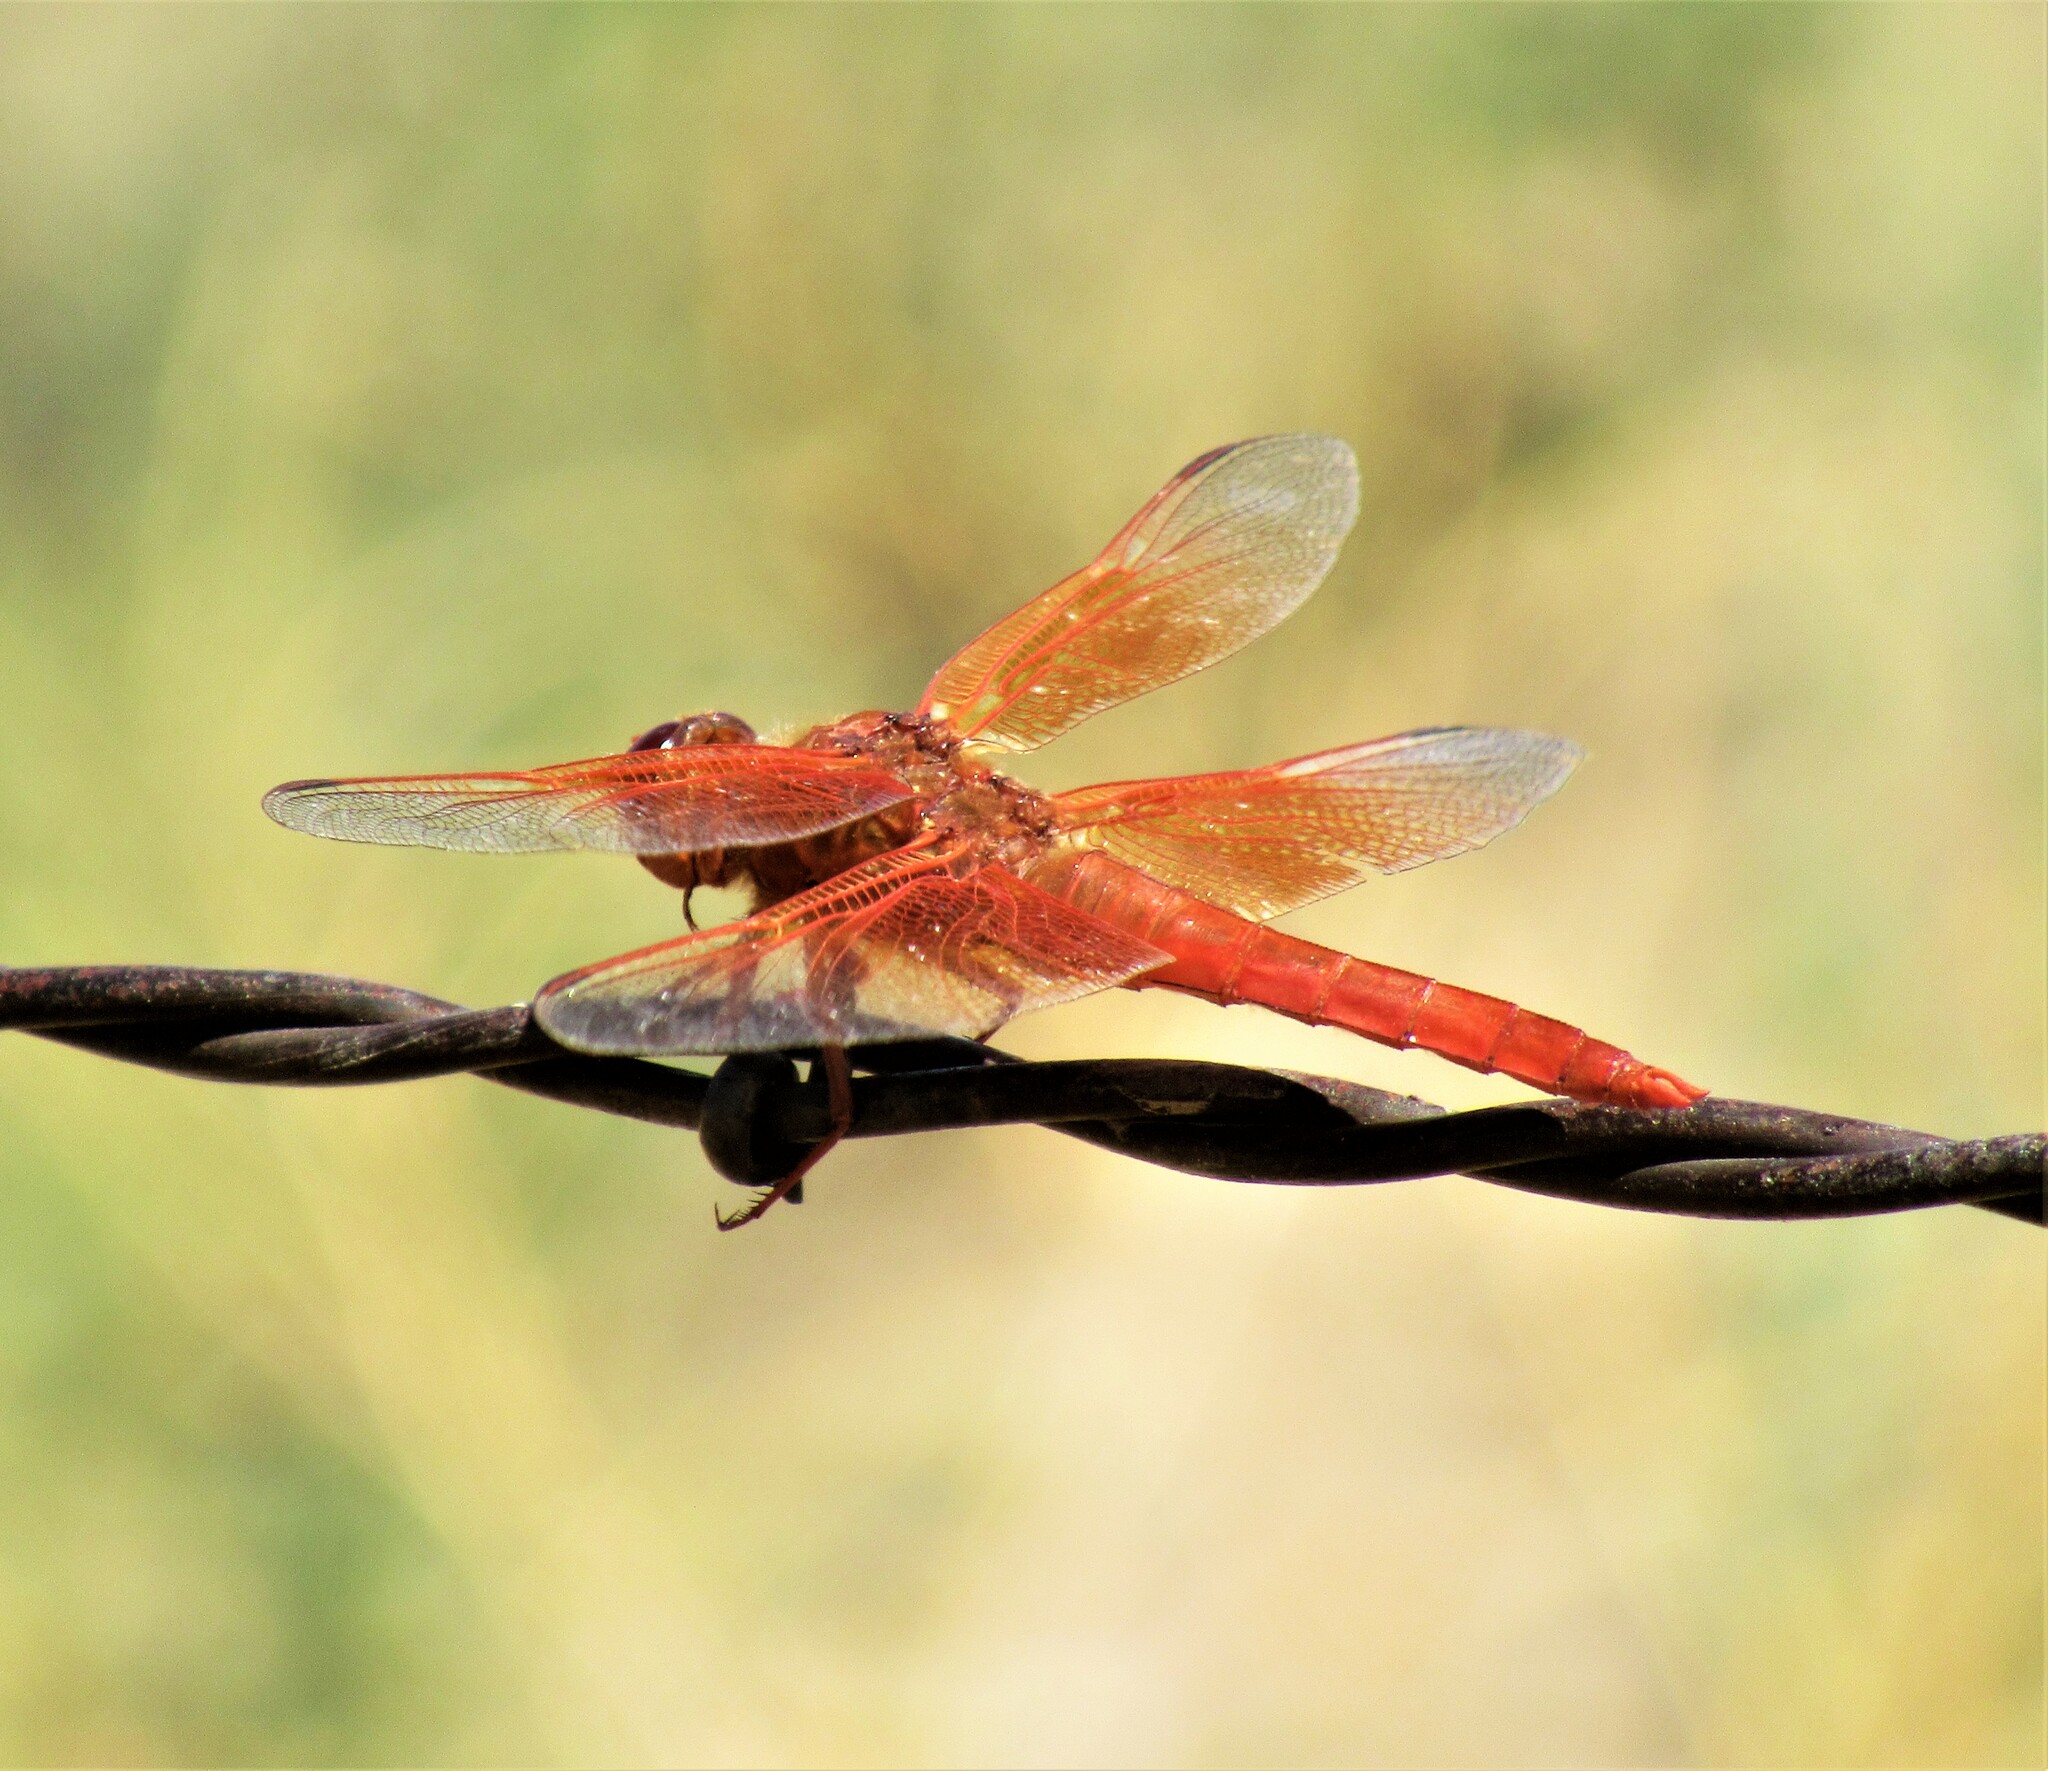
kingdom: Animalia
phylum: Arthropoda
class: Insecta
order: Odonata
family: Libellulidae
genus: Libellula
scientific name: Libellula saturata
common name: Flame skimmer
